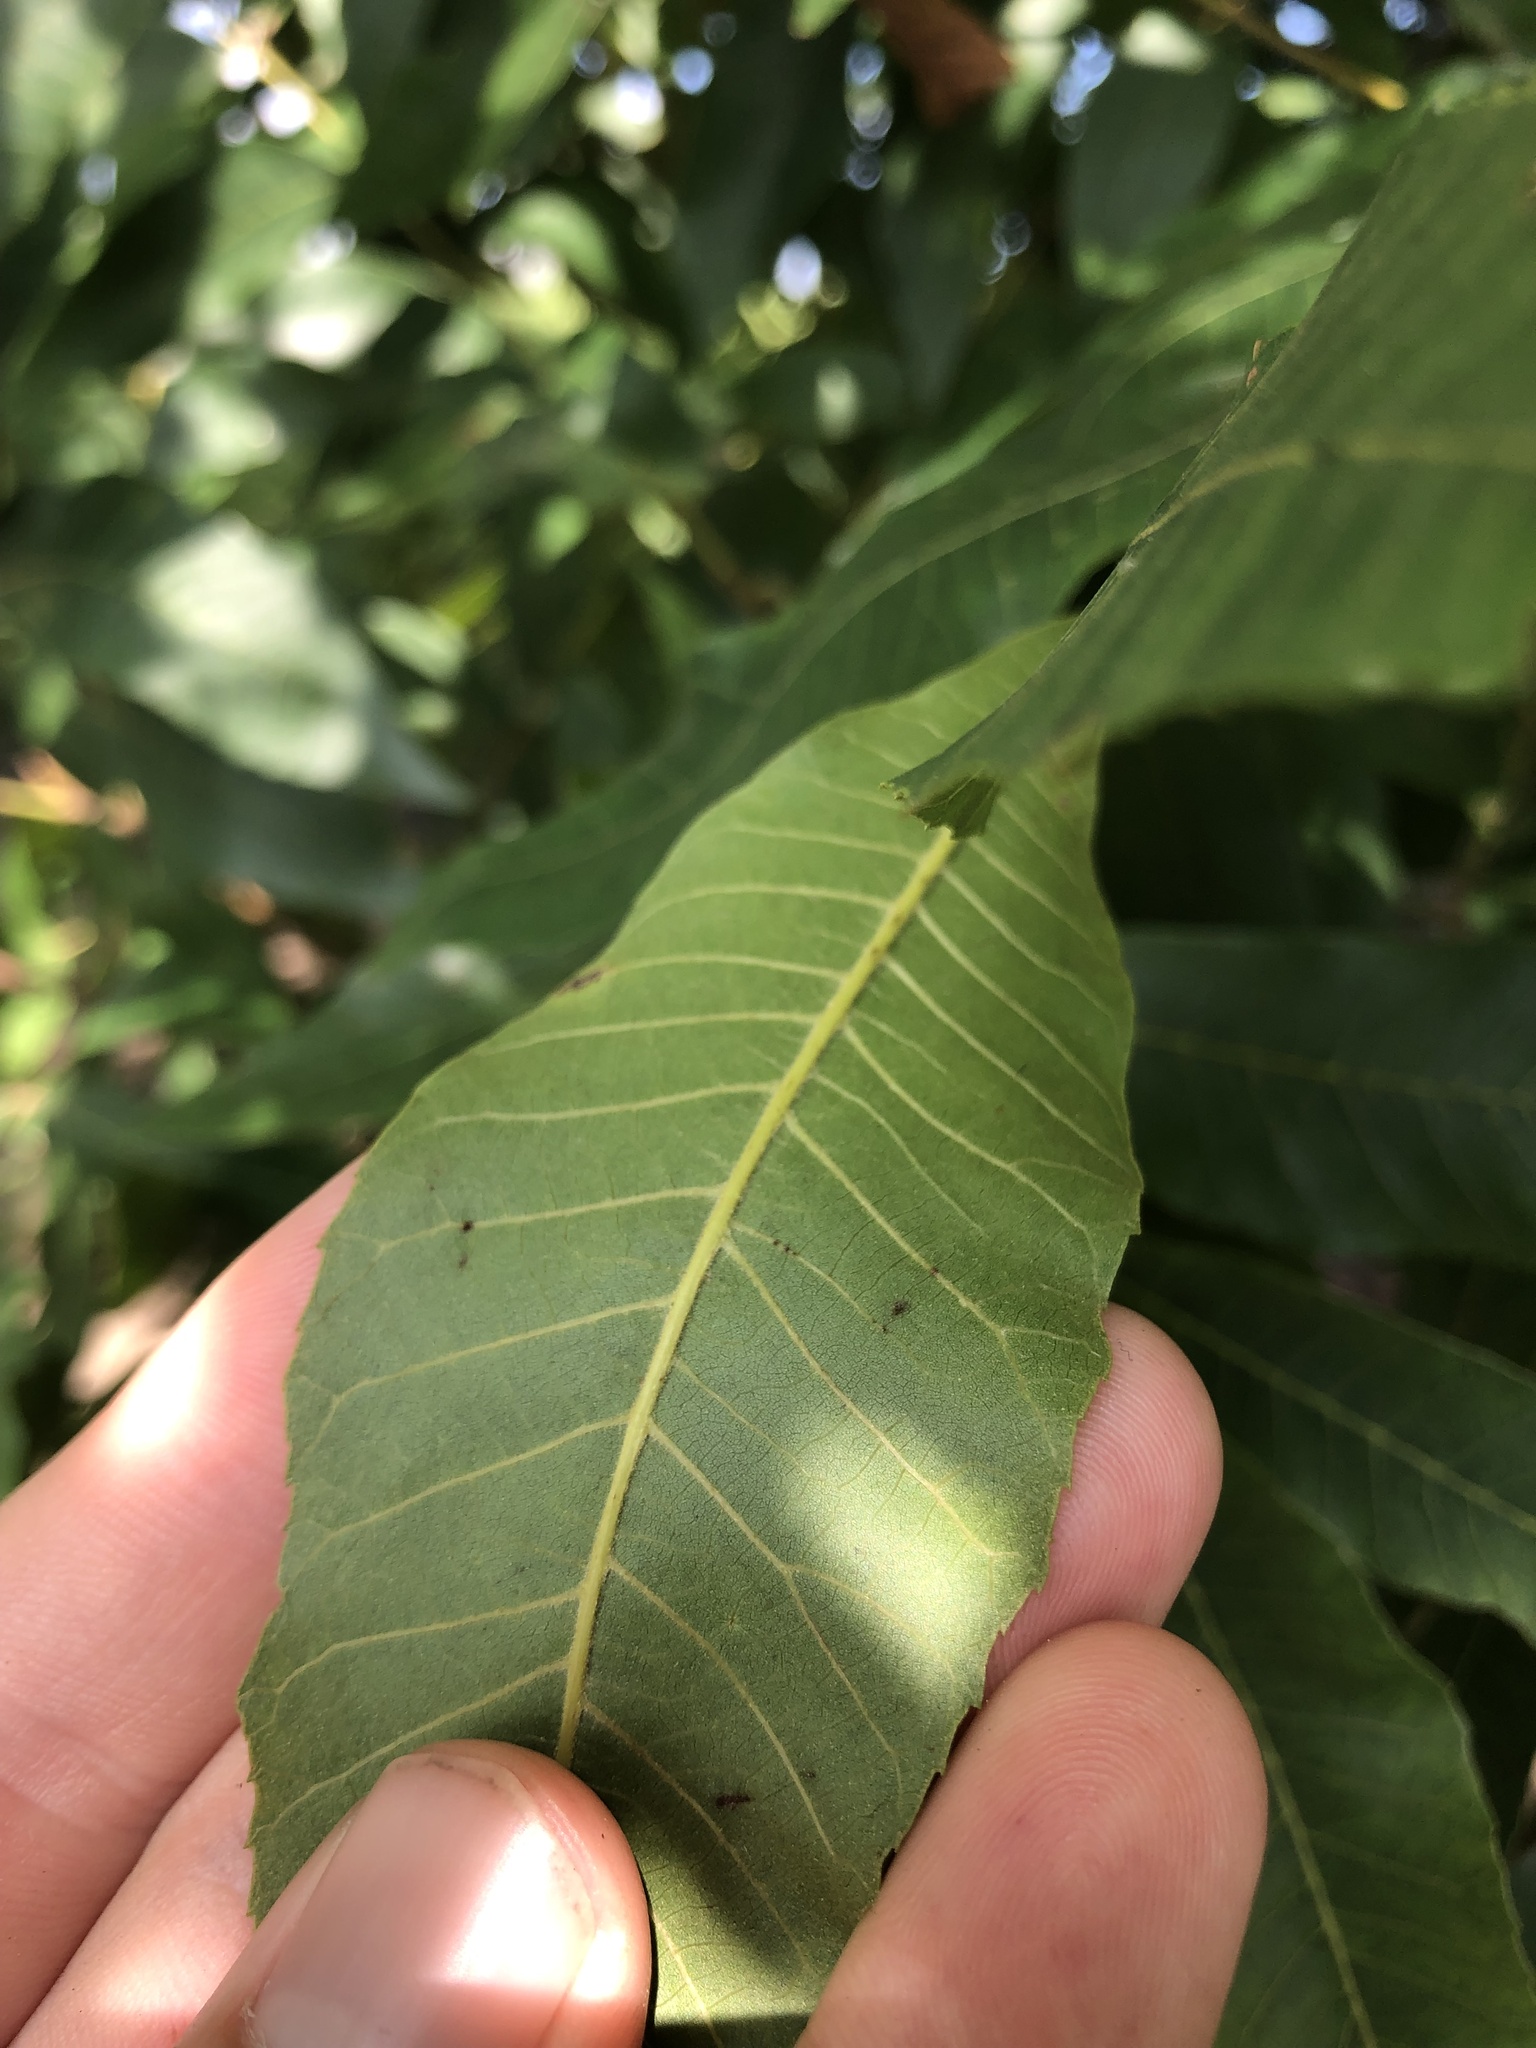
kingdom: Plantae
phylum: Tracheophyta
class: Magnoliopsida
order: Fagales
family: Juglandaceae
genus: Carya
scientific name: Carya aquatica
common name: Water hickory
